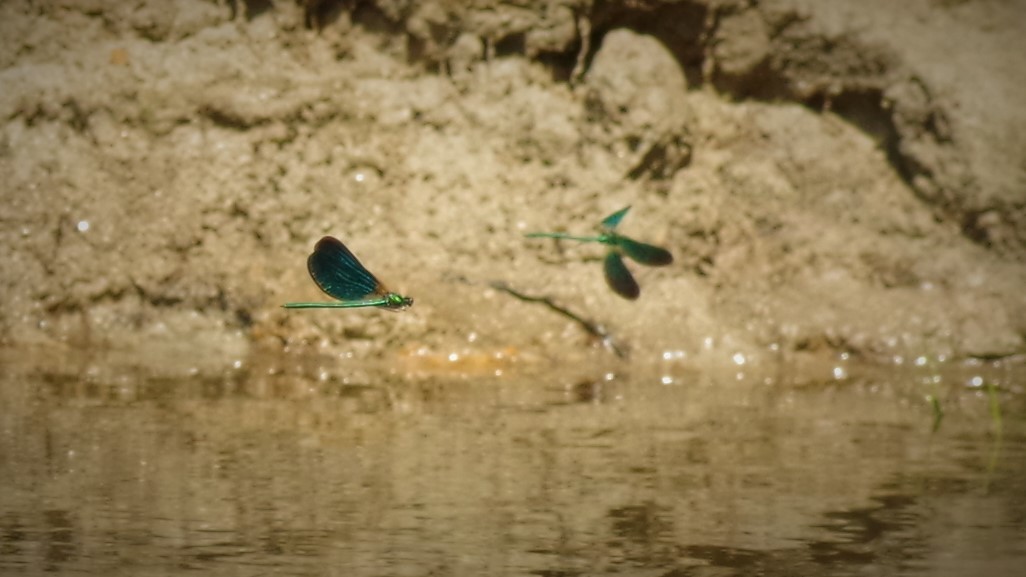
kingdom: Animalia
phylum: Arthropoda
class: Insecta
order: Odonata
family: Calopterygidae
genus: Calopteryx
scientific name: Calopteryx virgo
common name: Beautiful demoiselle
